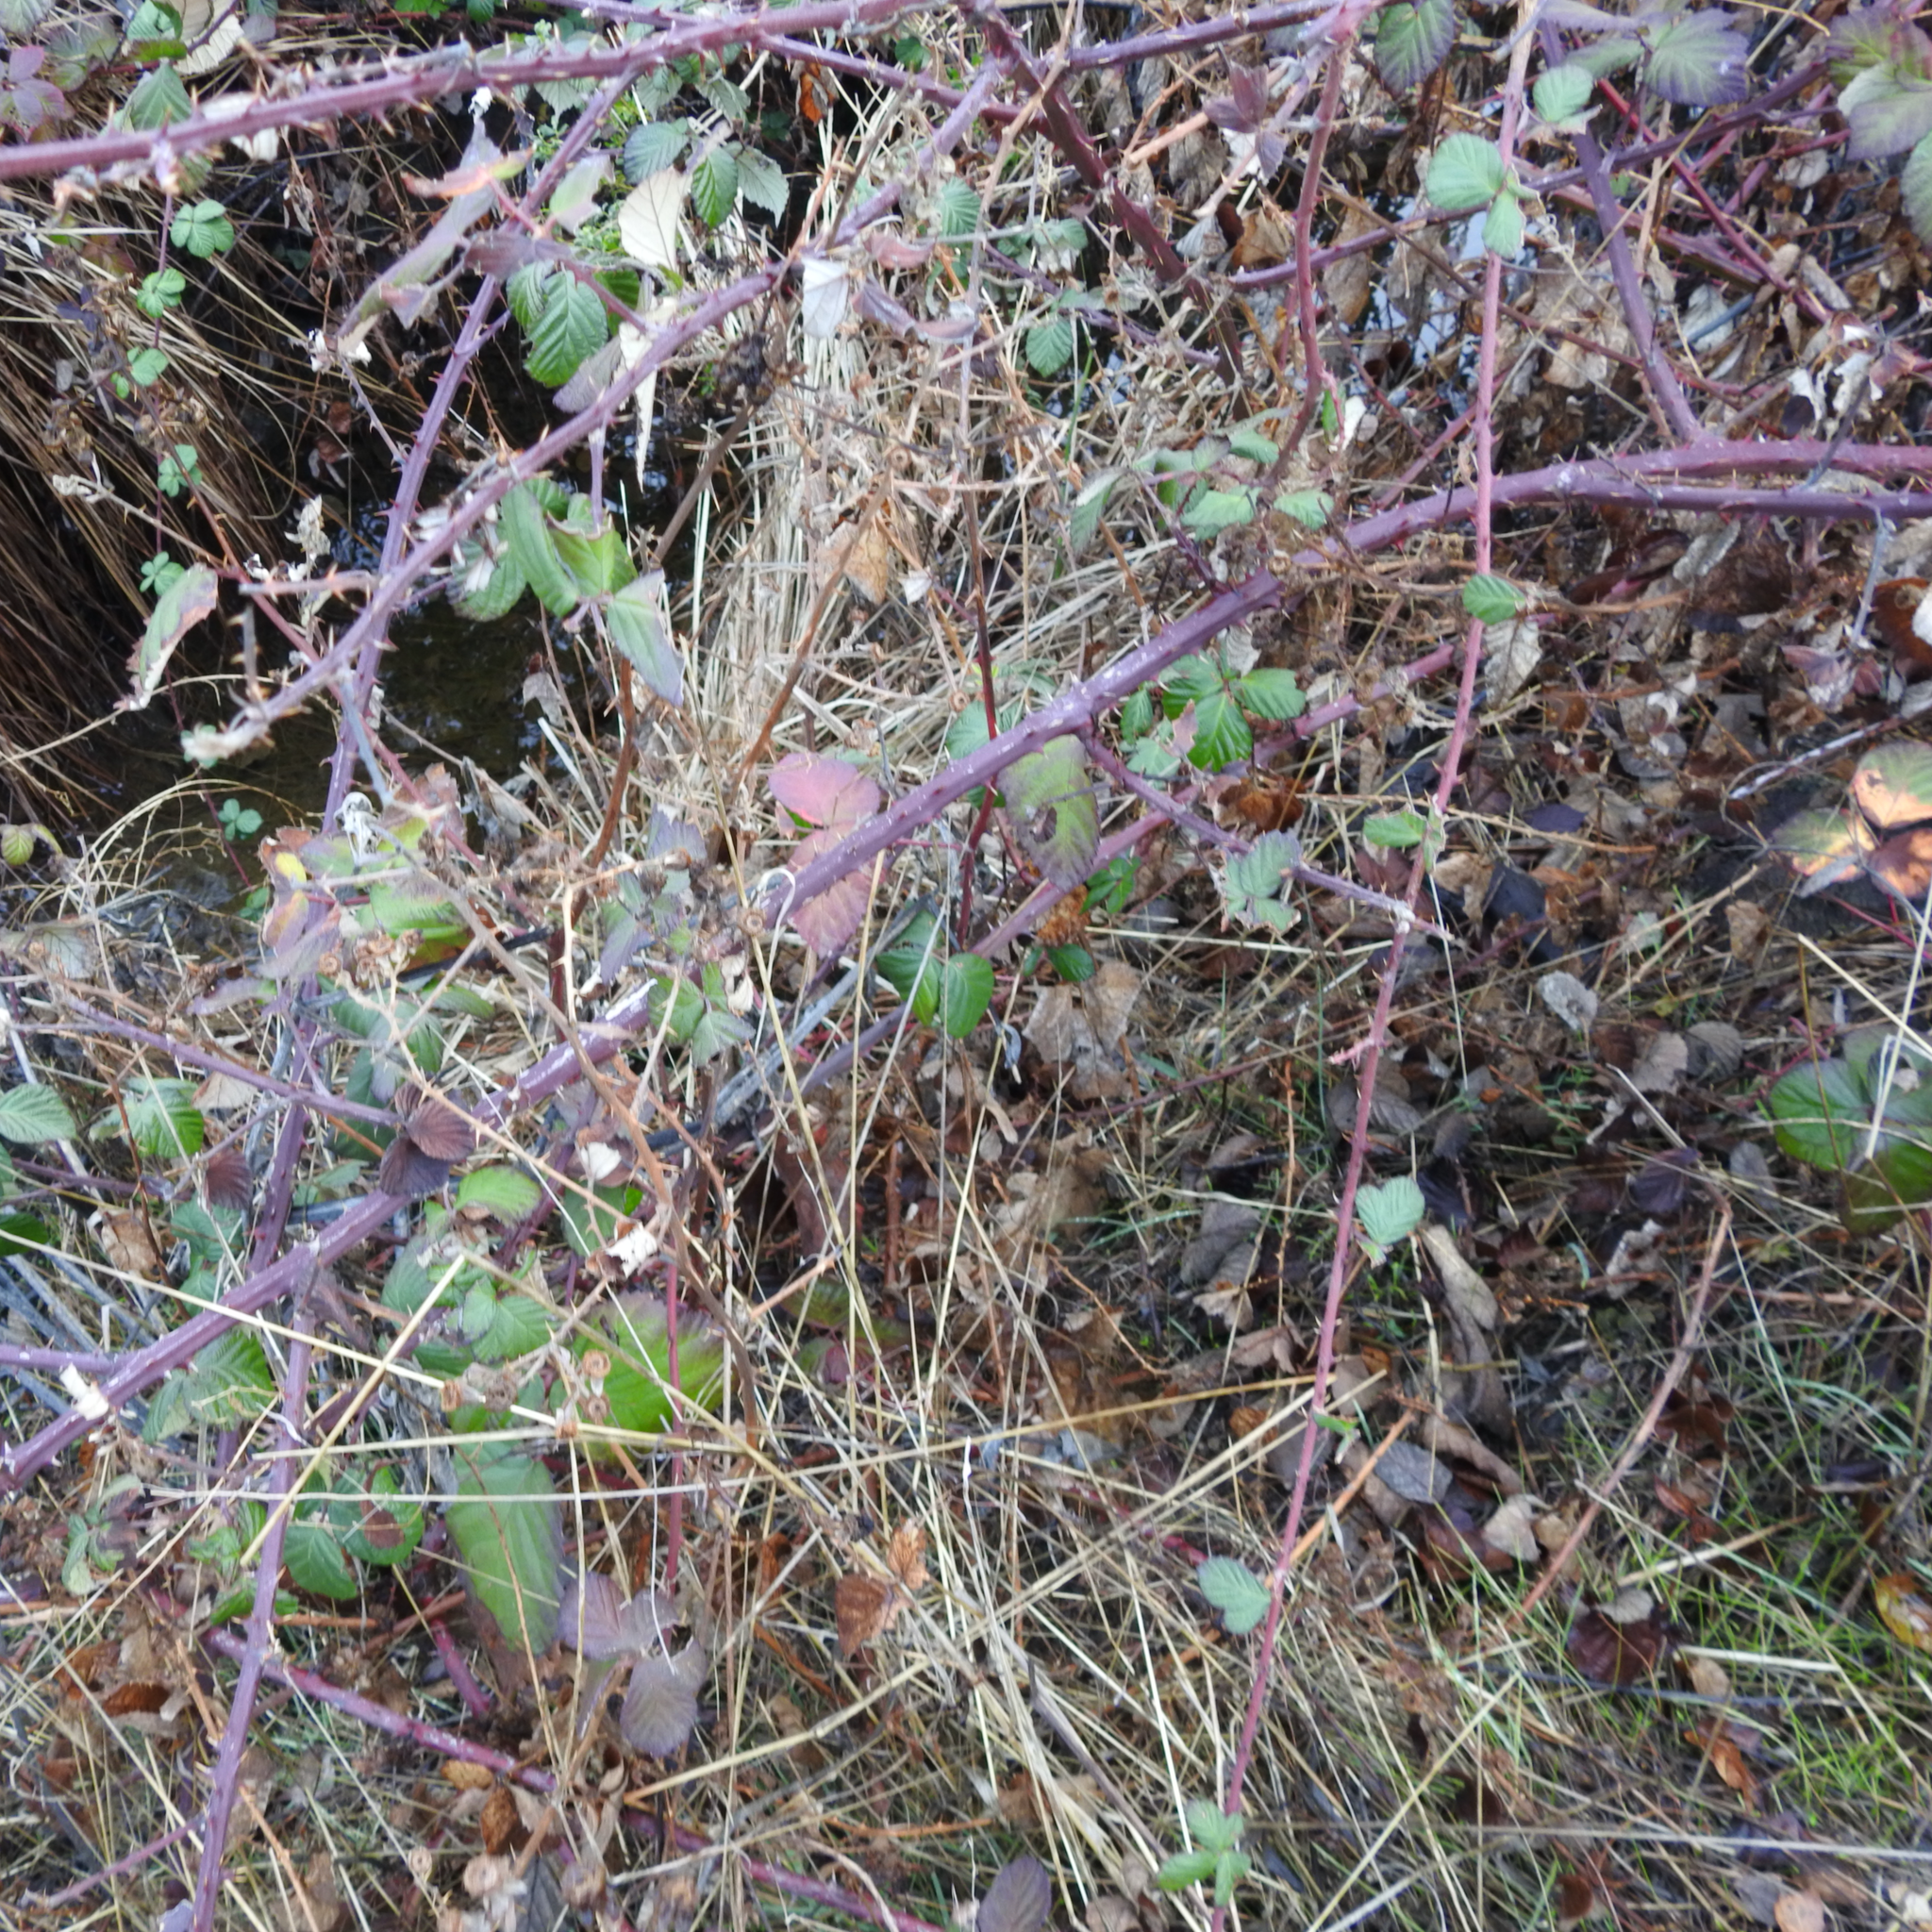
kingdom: Plantae
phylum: Tracheophyta
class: Magnoliopsida
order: Rosales
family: Rosaceae
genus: Rubus
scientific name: Rubus armeniacus
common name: Himalayan blackberry
